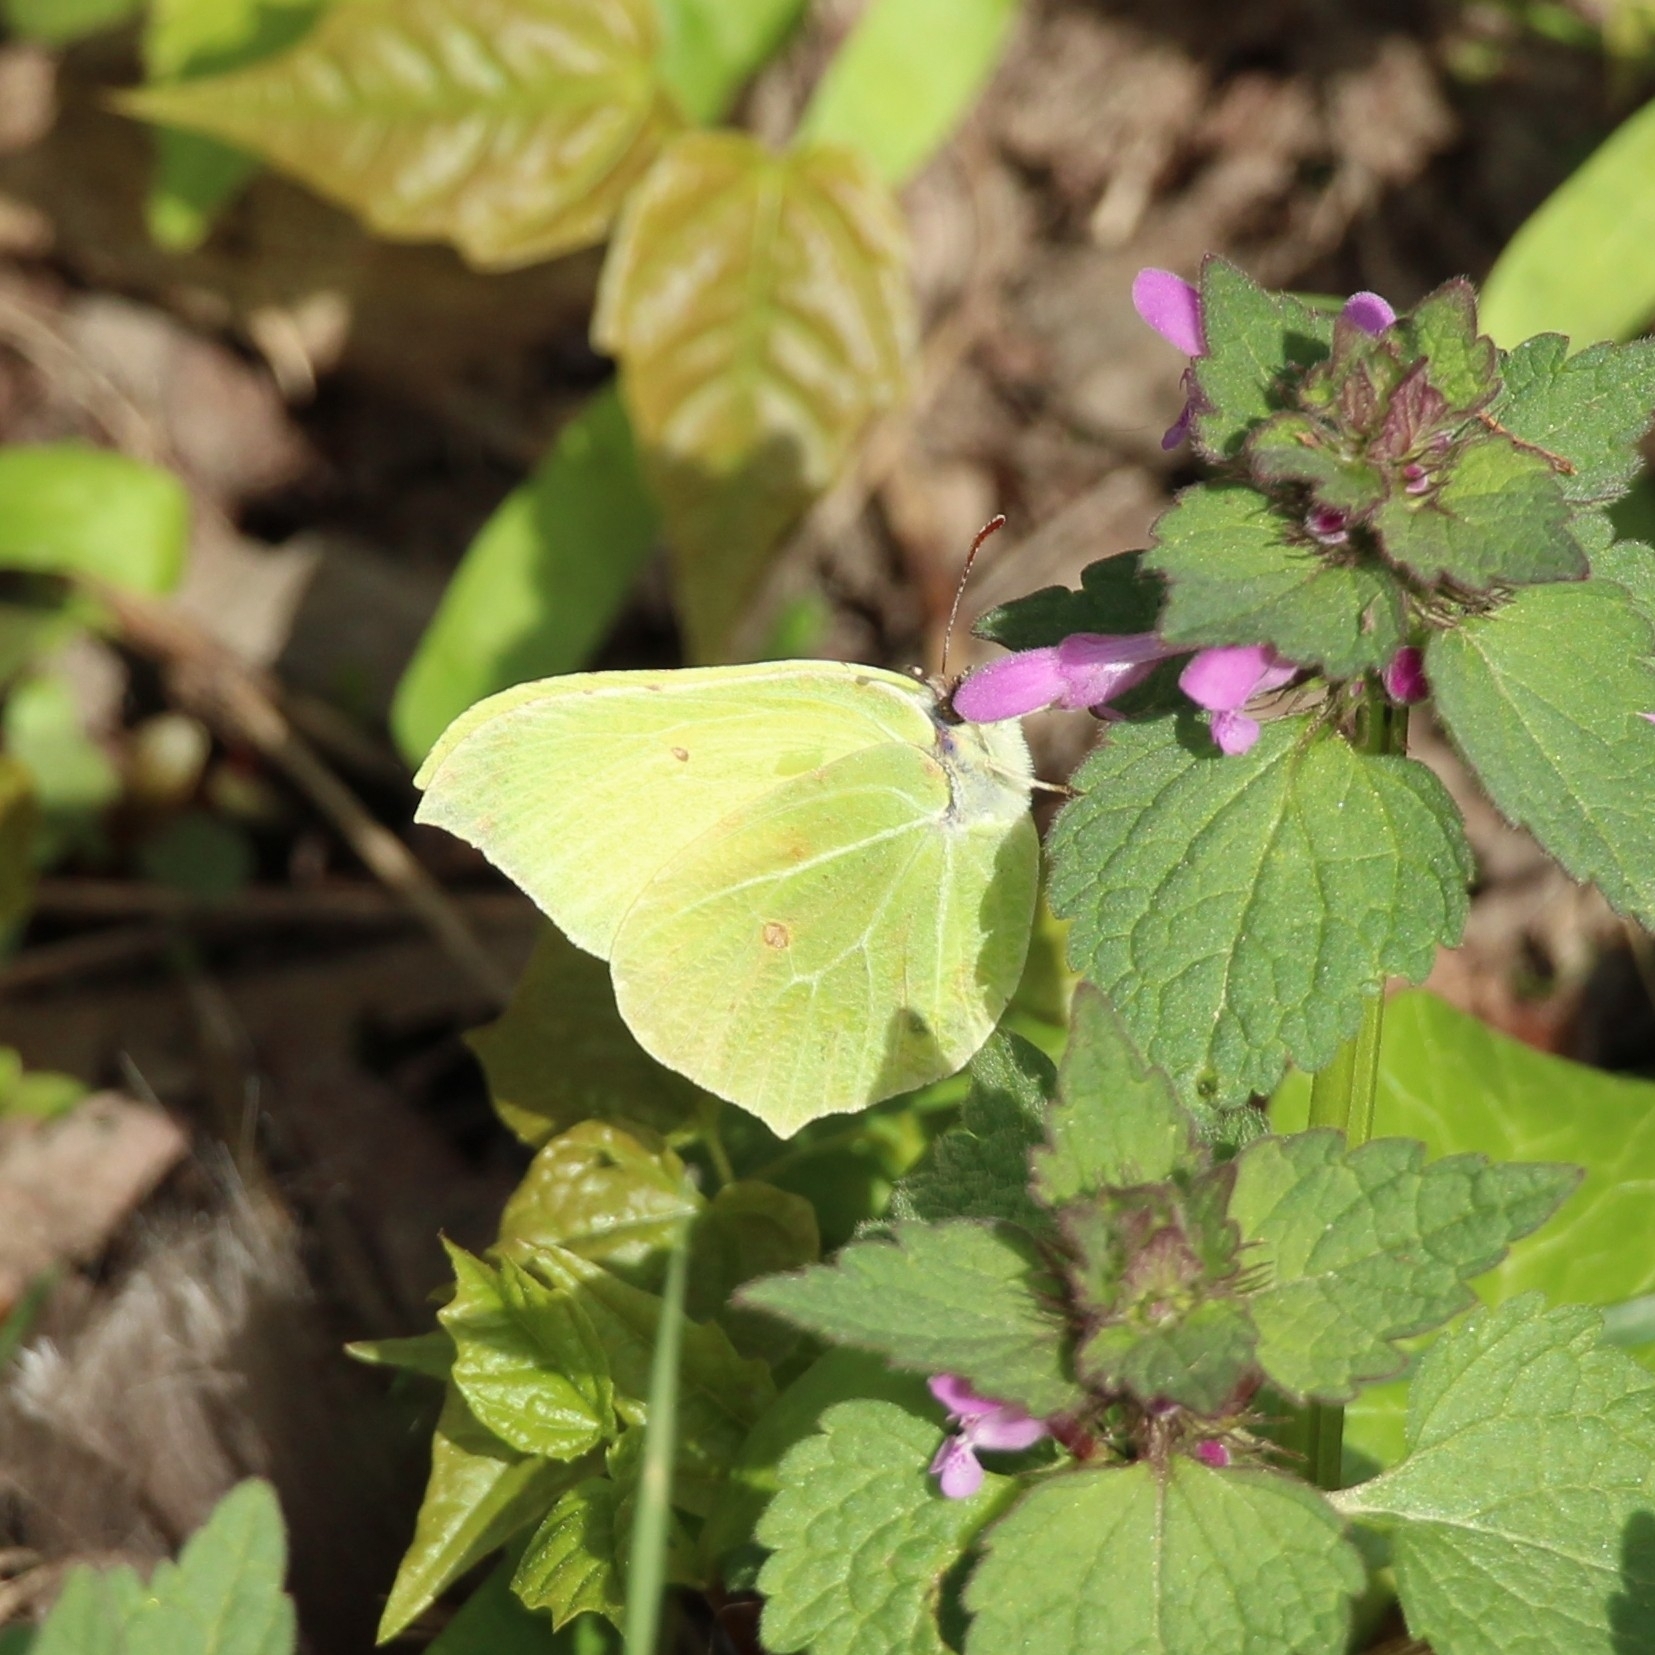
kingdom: Animalia
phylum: Arthropoda
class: Insecta
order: Lepidoptera
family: Pieridae
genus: Gonepteryx
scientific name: Gonepteryx rhamni
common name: Brimstone
